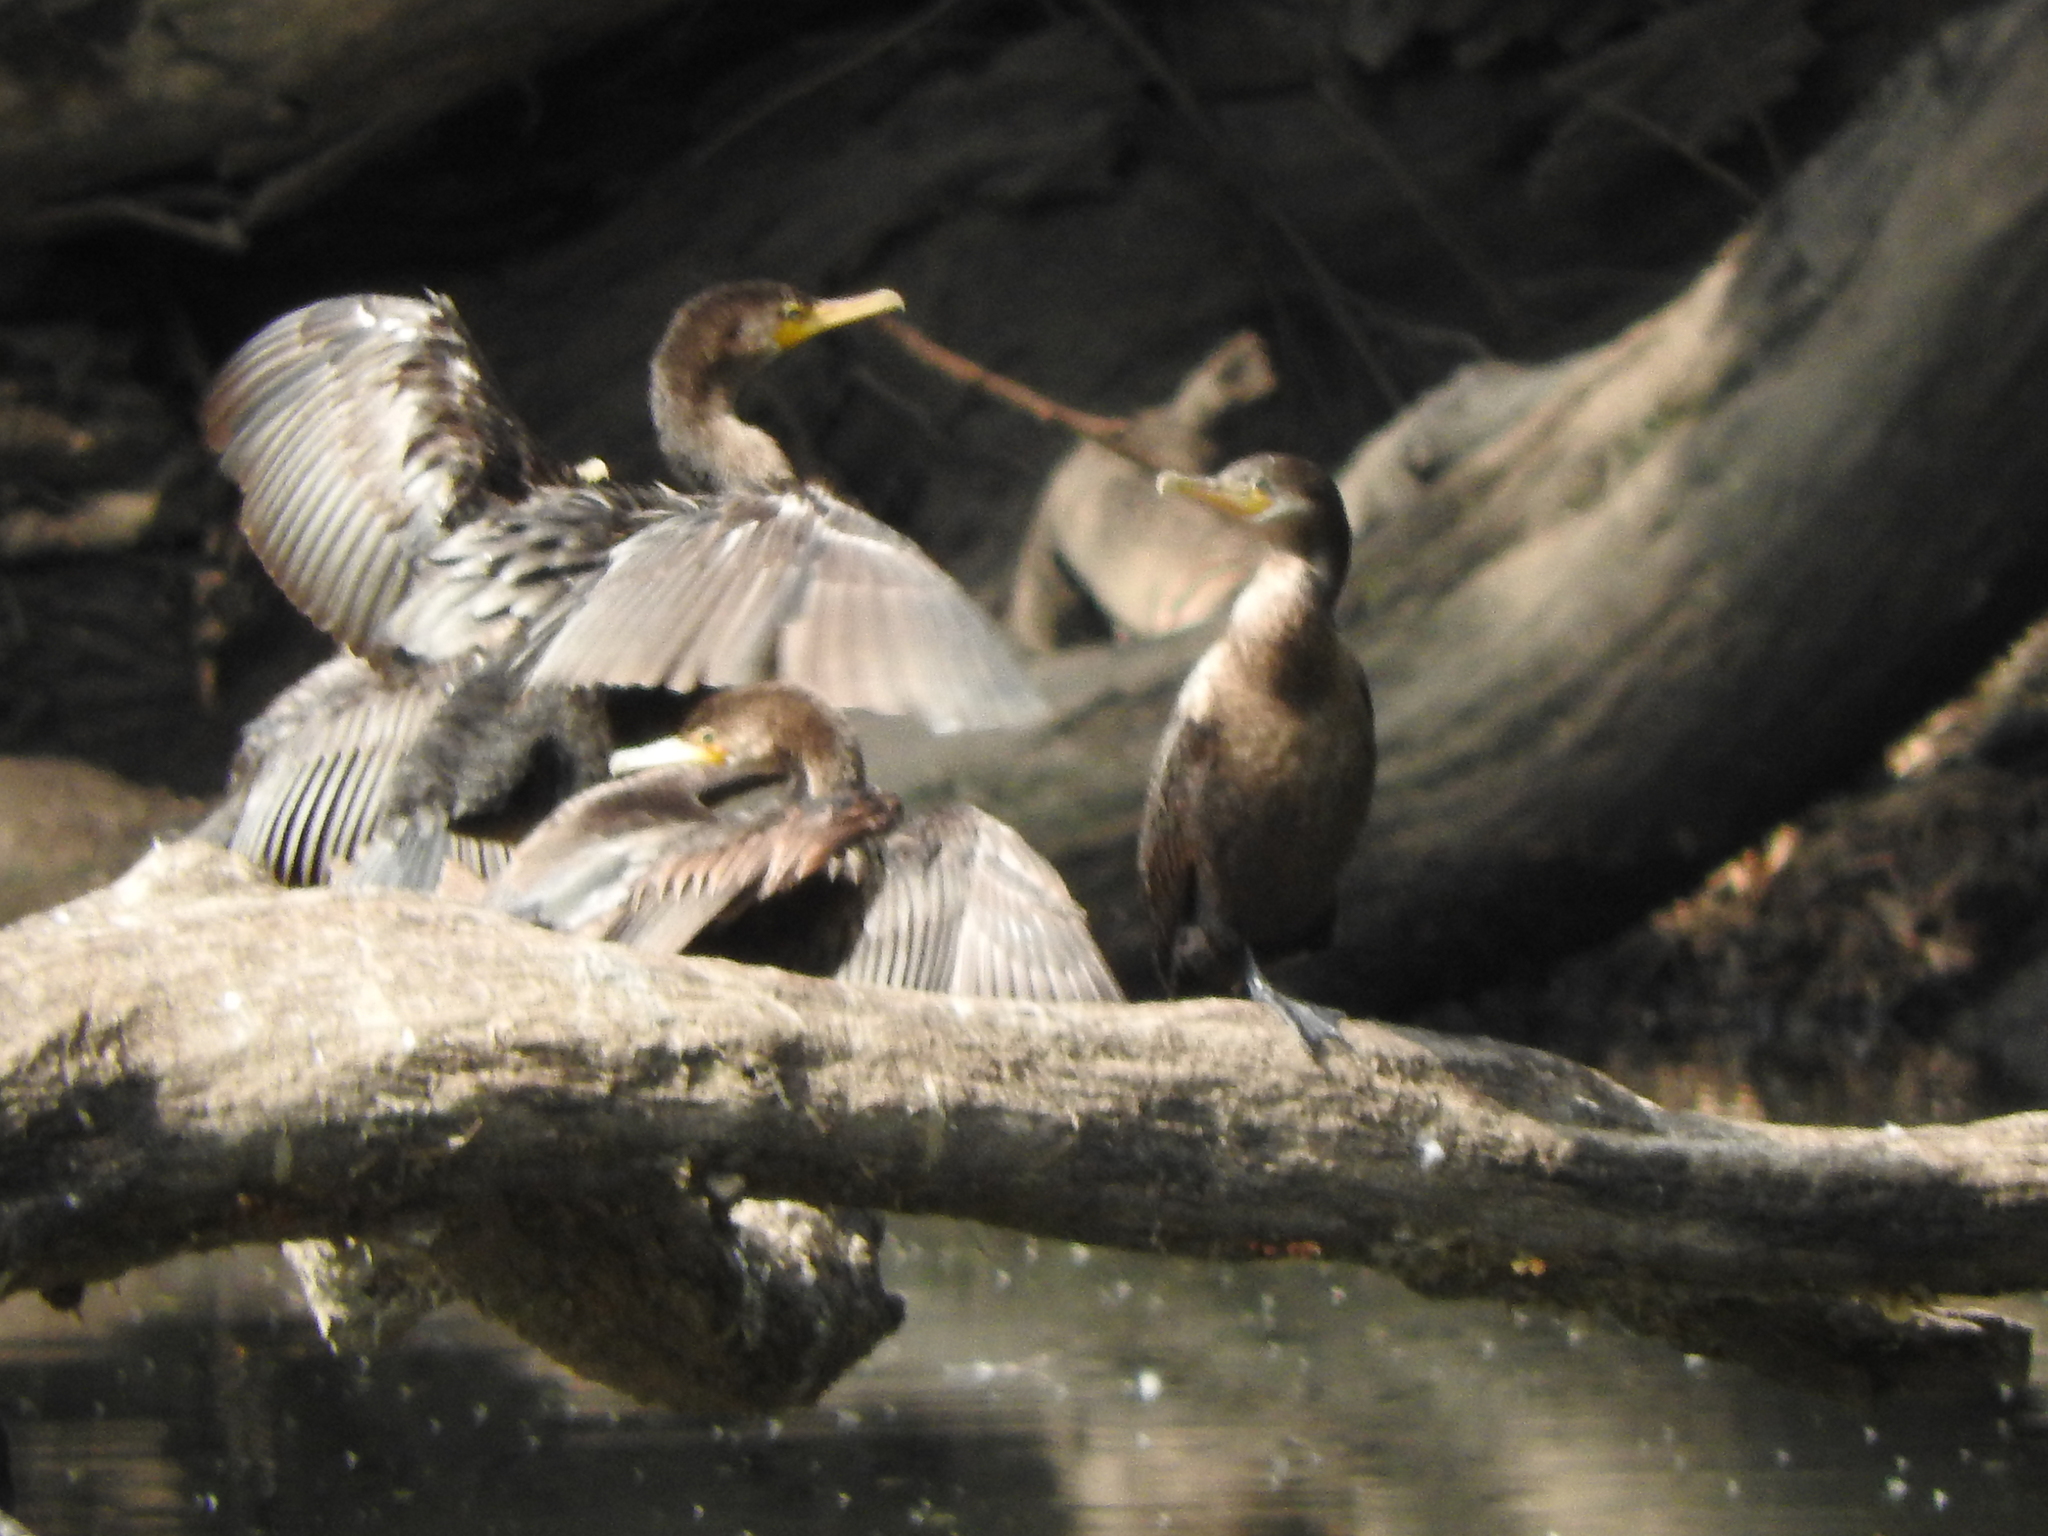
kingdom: Animalia
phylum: Chordata
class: Aves
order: Suliformes
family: Phalacrocoracidae
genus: Phalacrocorax
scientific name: Phalacrocorax brasilianus
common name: Neotropic cormorant
